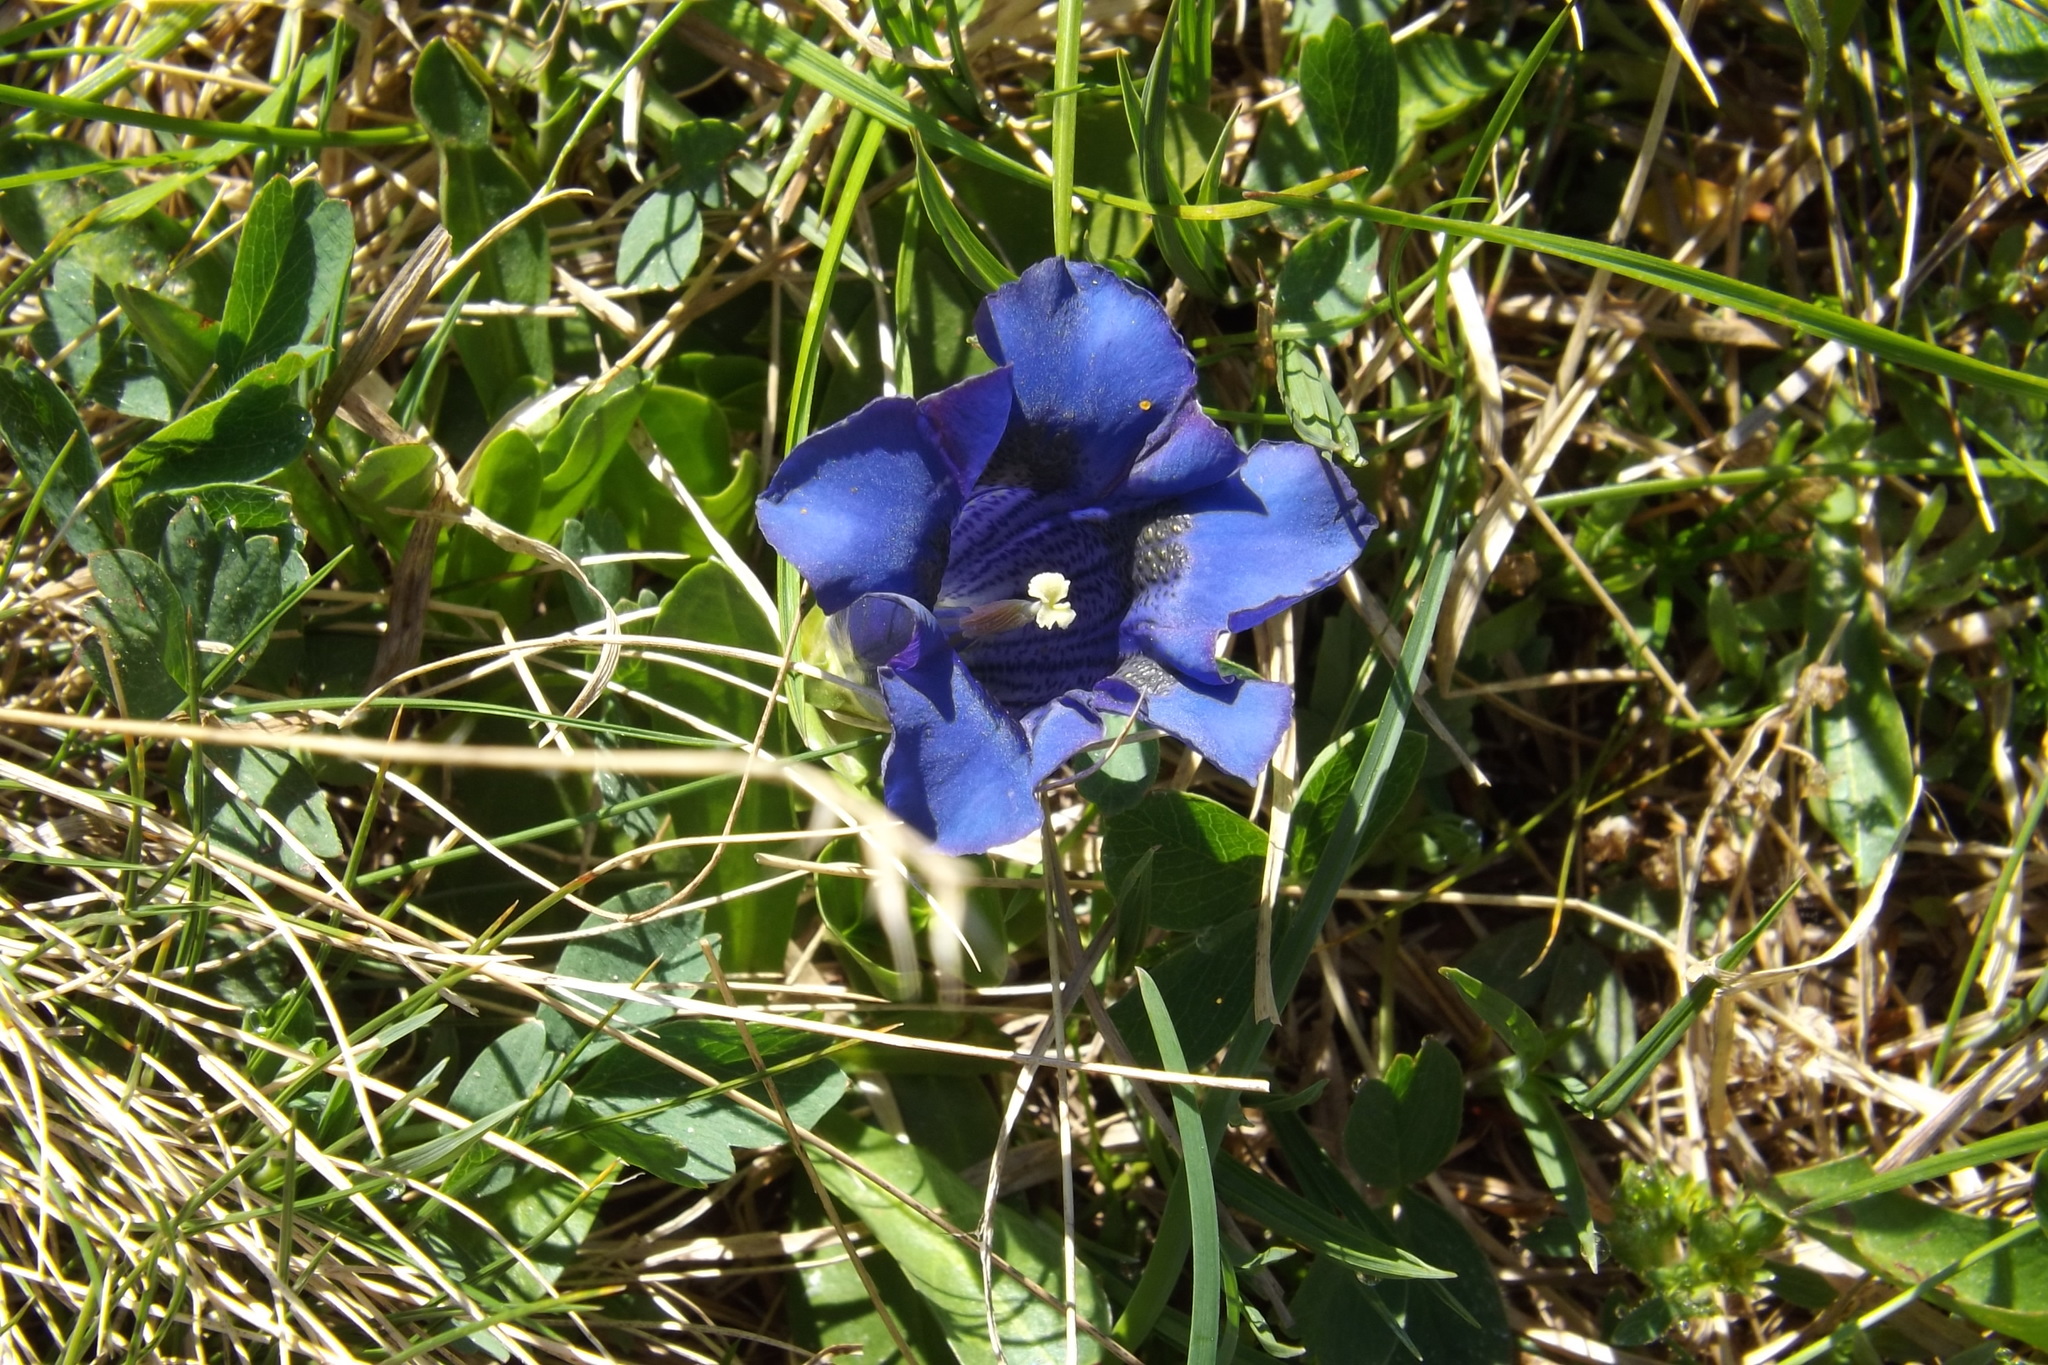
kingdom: Plantae
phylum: Tracheophyta
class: Magnoliopsida
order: Gentianales
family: Gentianaceae
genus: Gentiana
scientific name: Gentiana acaulis
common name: Trumpet gentian
